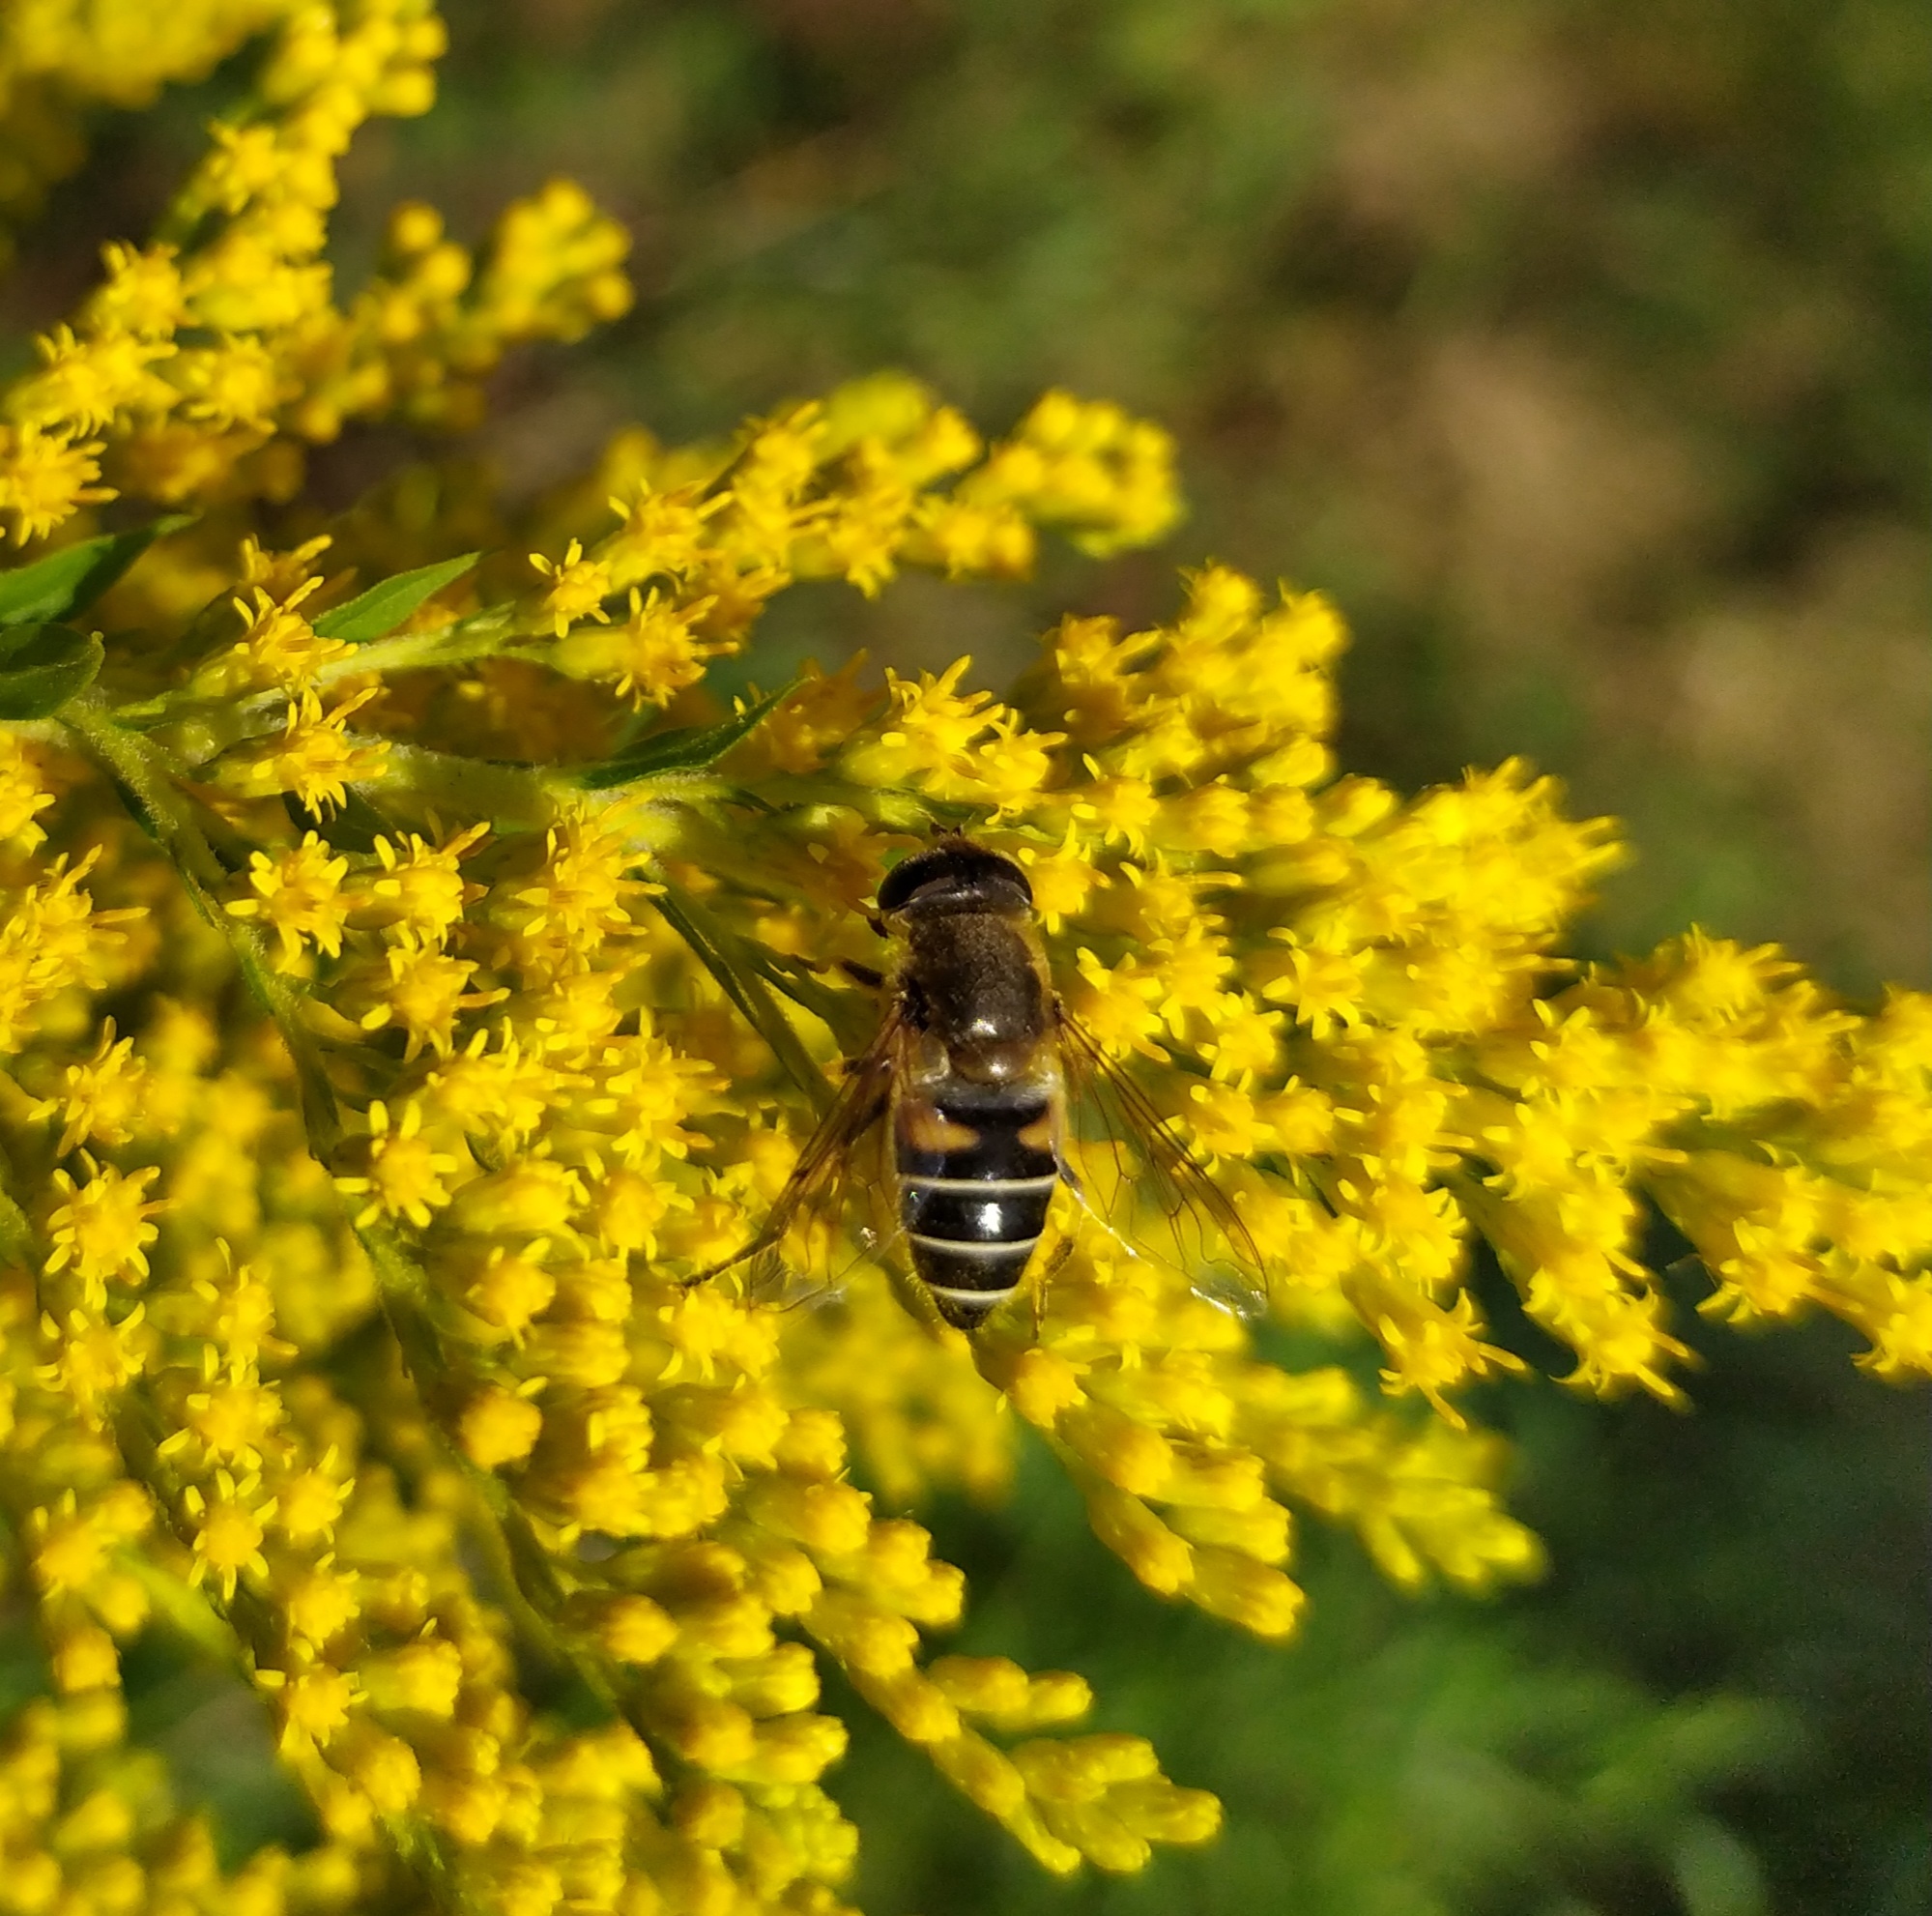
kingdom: Animalia
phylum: Arthropoda
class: Insecta
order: Diptera
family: Syrphidae
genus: Eristalis
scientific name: Eristalis nemorum
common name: Orange-spined drone fly
